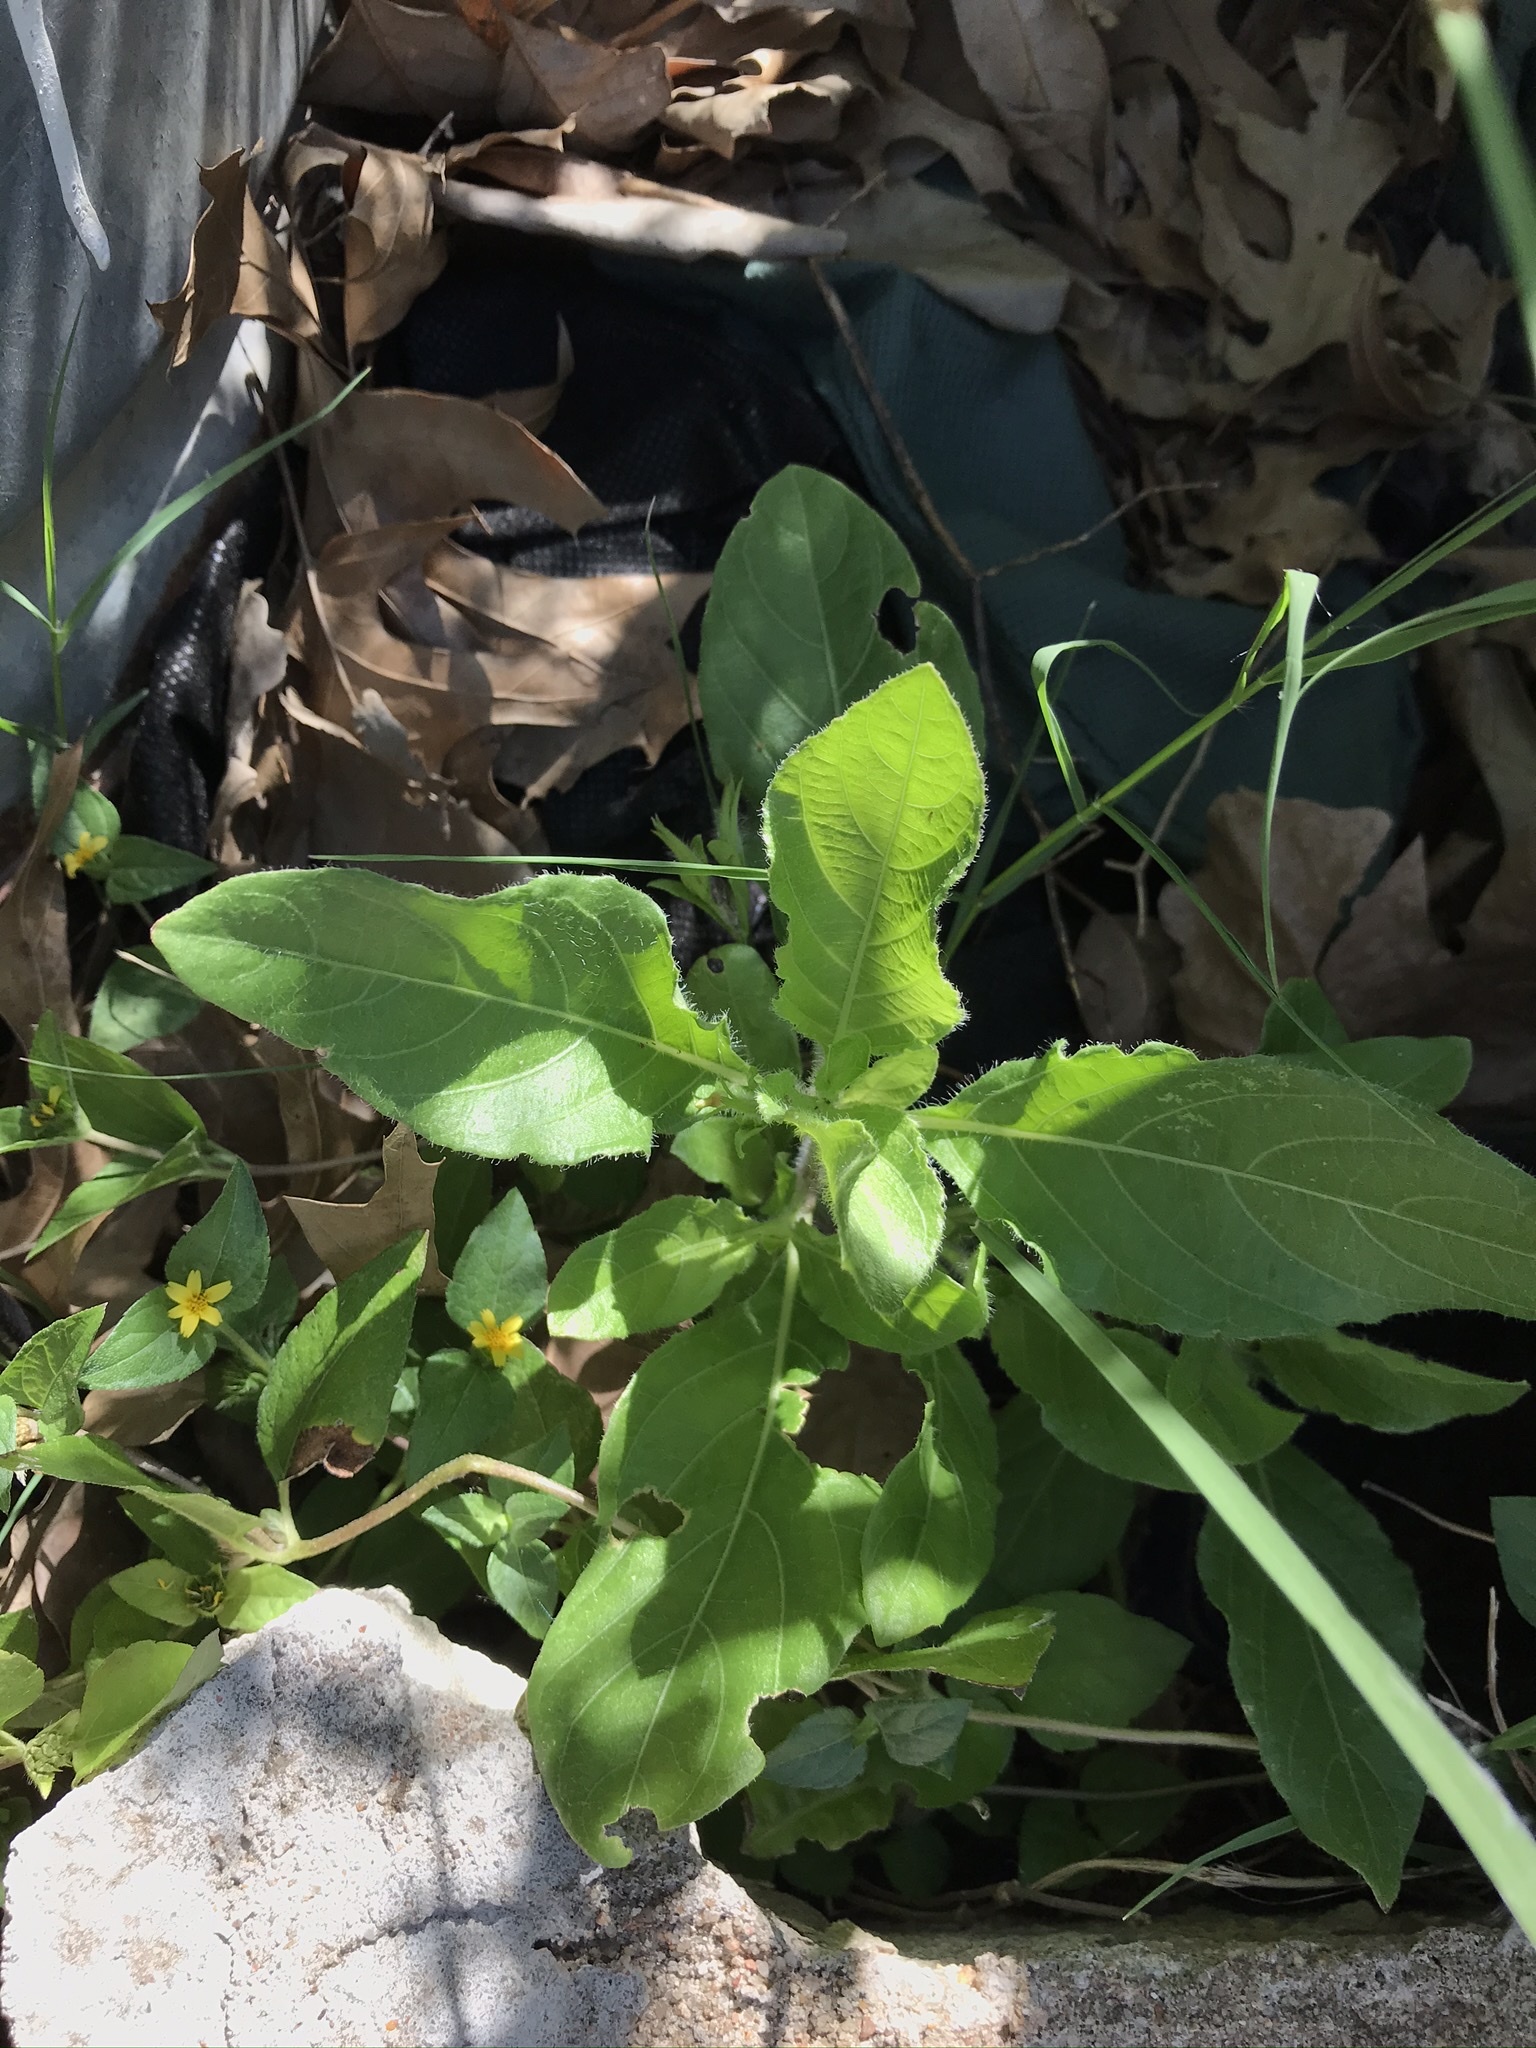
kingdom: Plantae
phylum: Tracheophyta
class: Magnoliopsida
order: Lamiales
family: Acanthaceae
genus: Ruellia
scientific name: Ruellia ciliatiflora
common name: Hairyflower wild petunia
